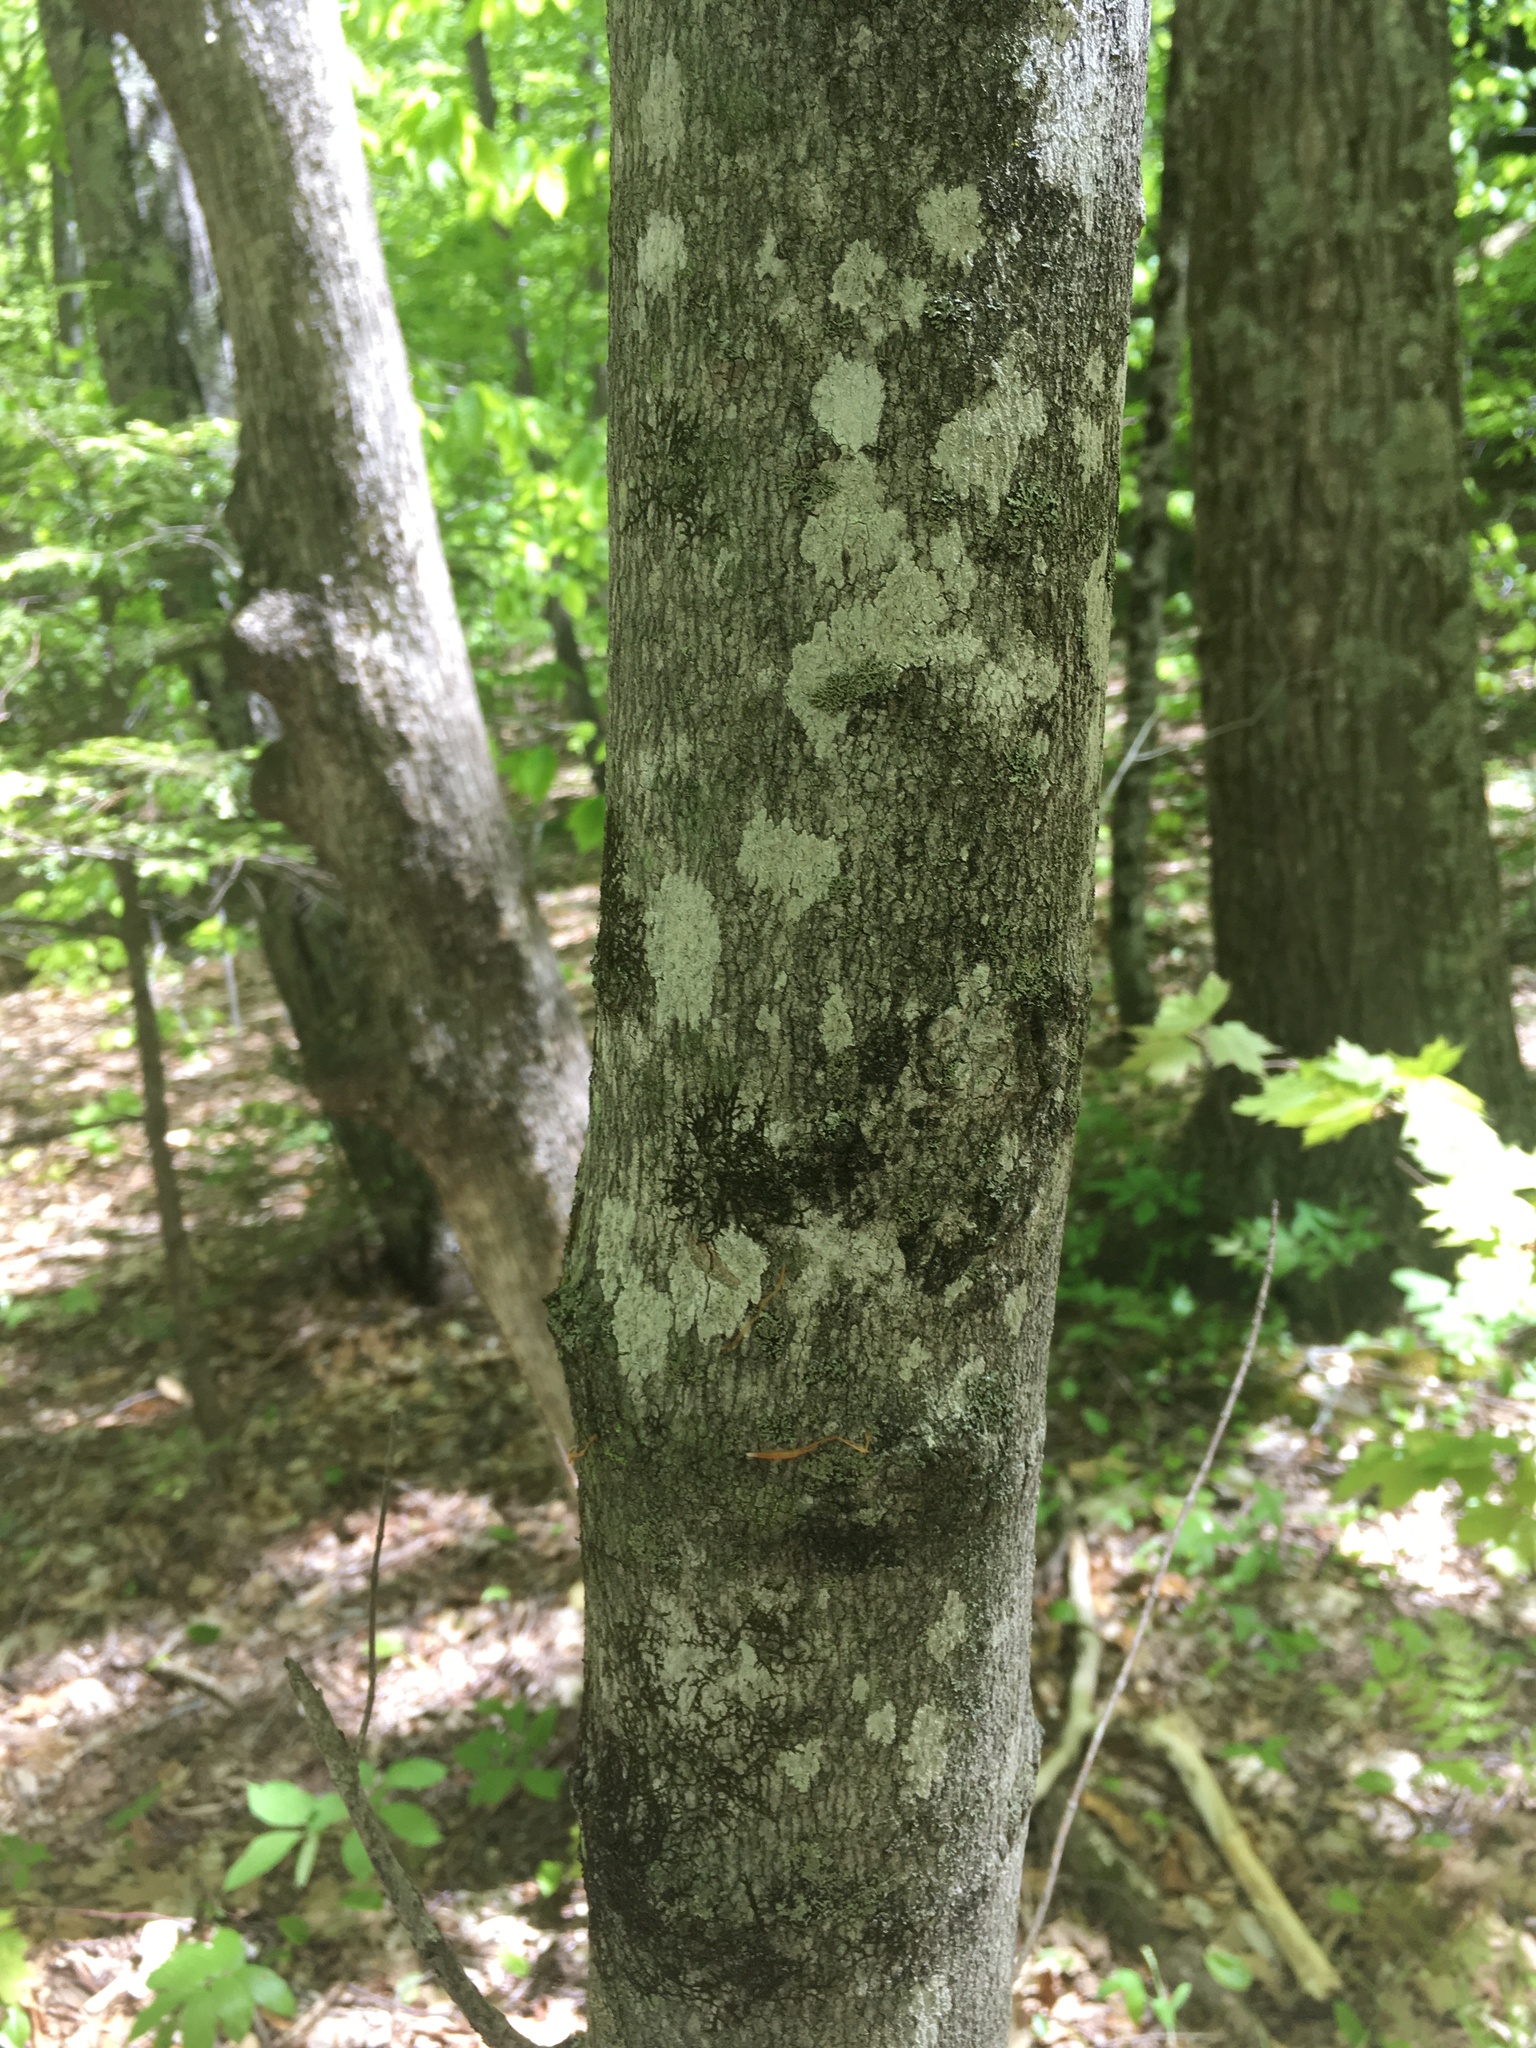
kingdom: Plantae
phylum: Tracheophyta
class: Magnoliopsida
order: Sapindales
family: Sapindaceae
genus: Acer
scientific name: Acer saccharum
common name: Sugar maple
